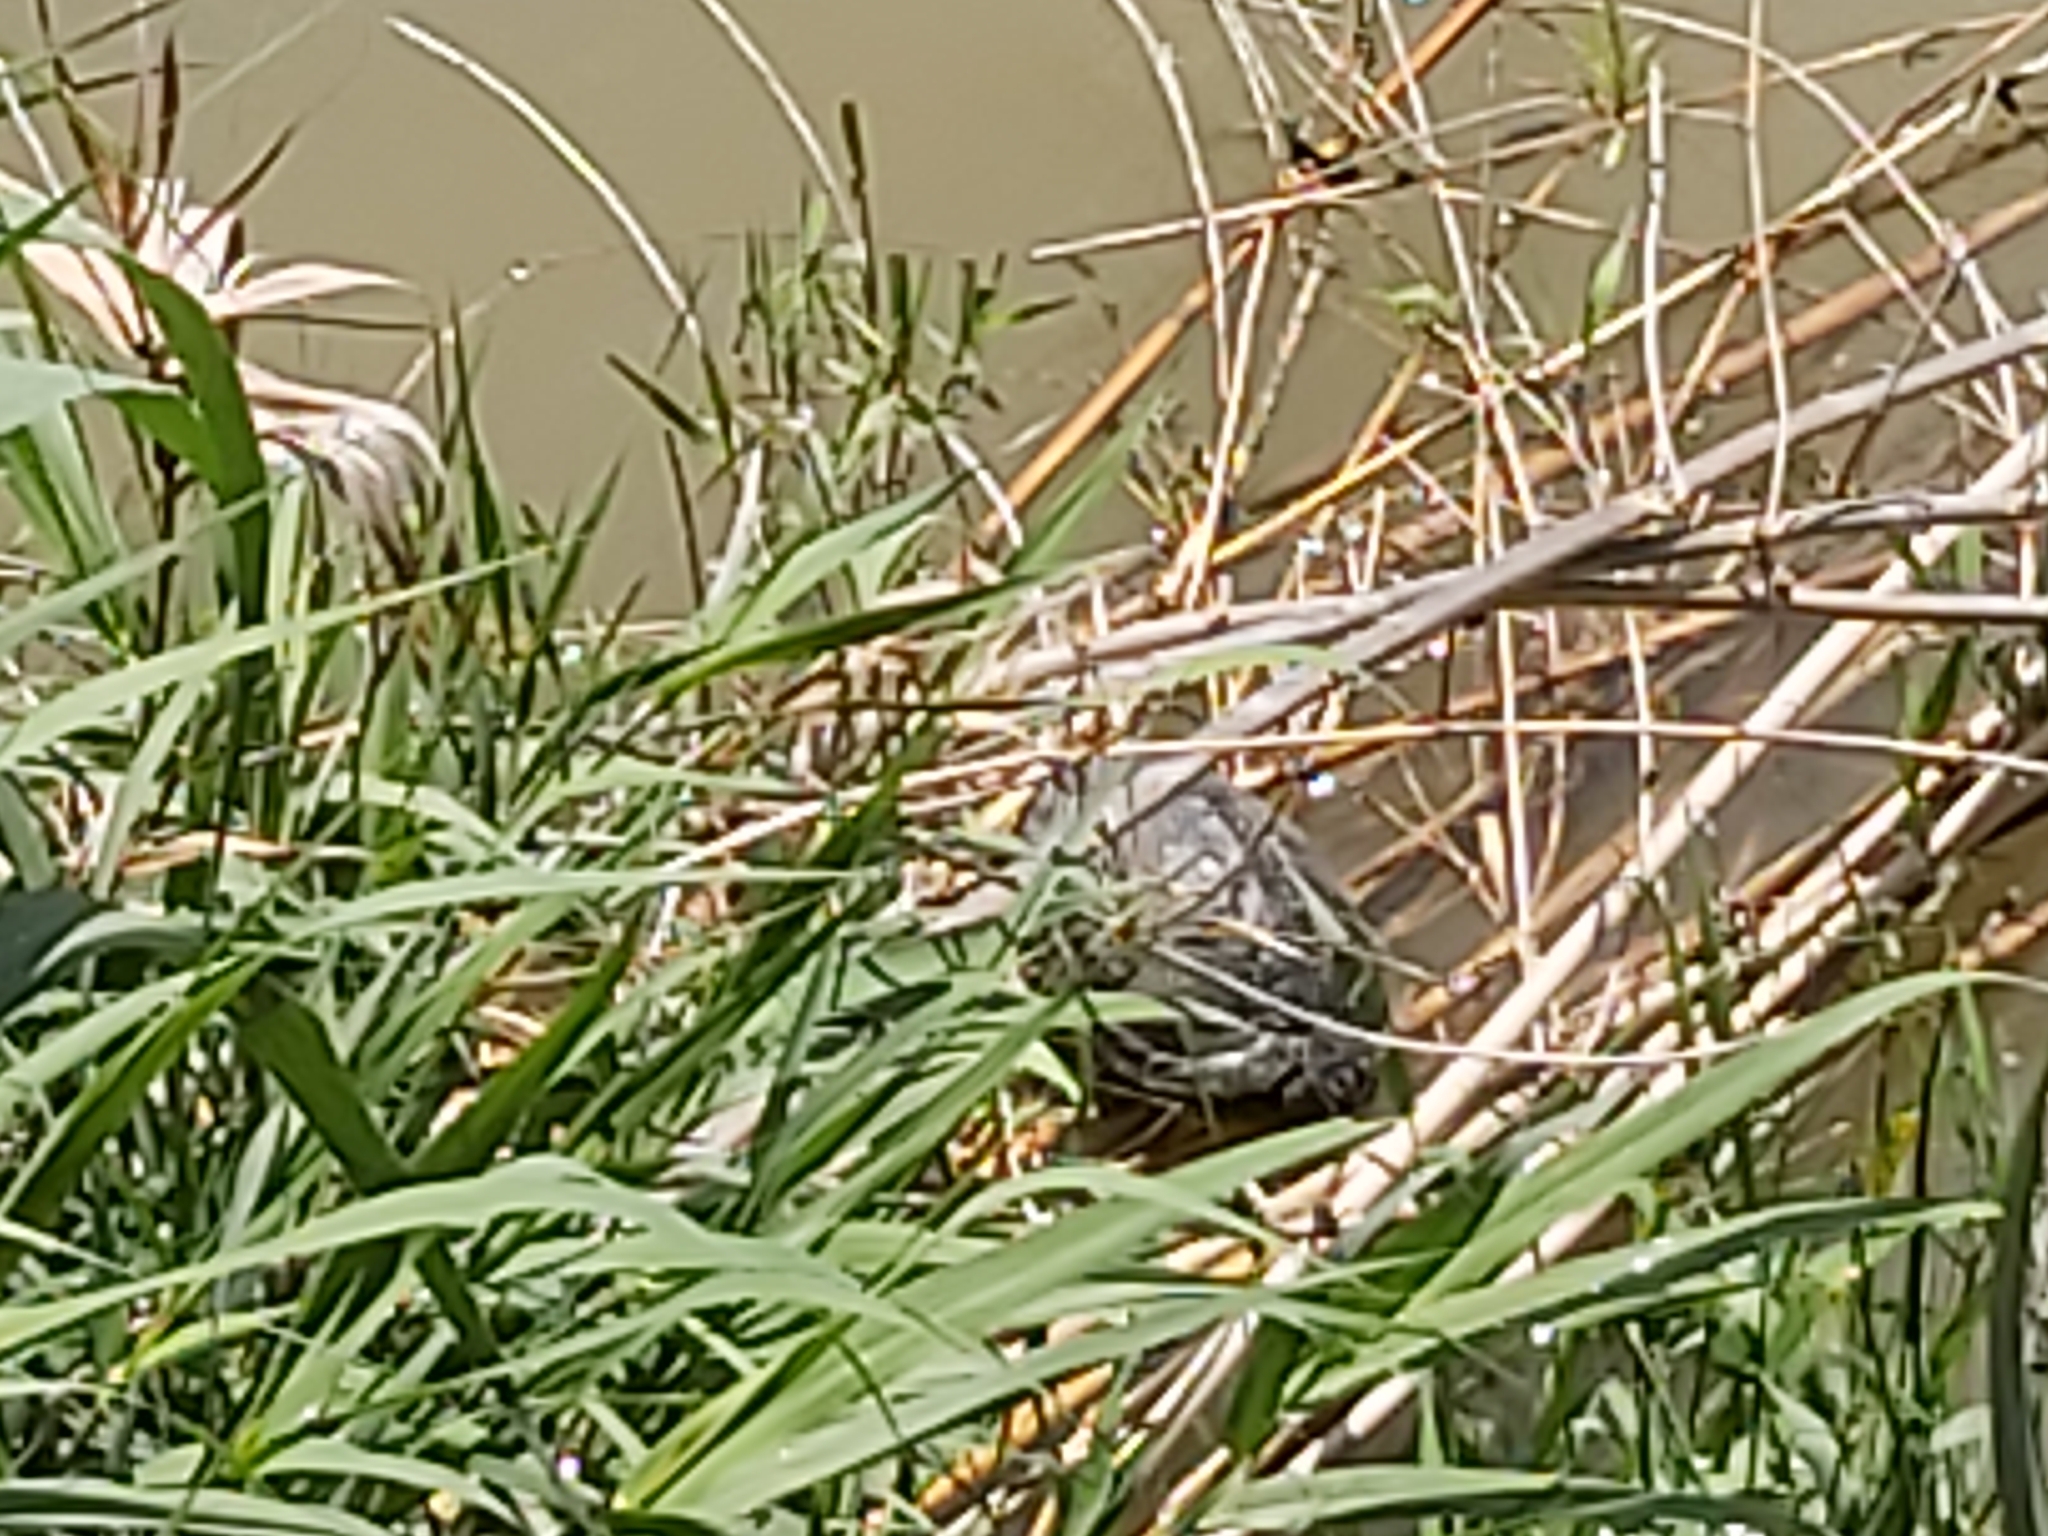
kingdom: Animalia
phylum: Chordata
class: Testudines
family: Emydidae
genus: Trachemys
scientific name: Trachemys scripta
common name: Slider
